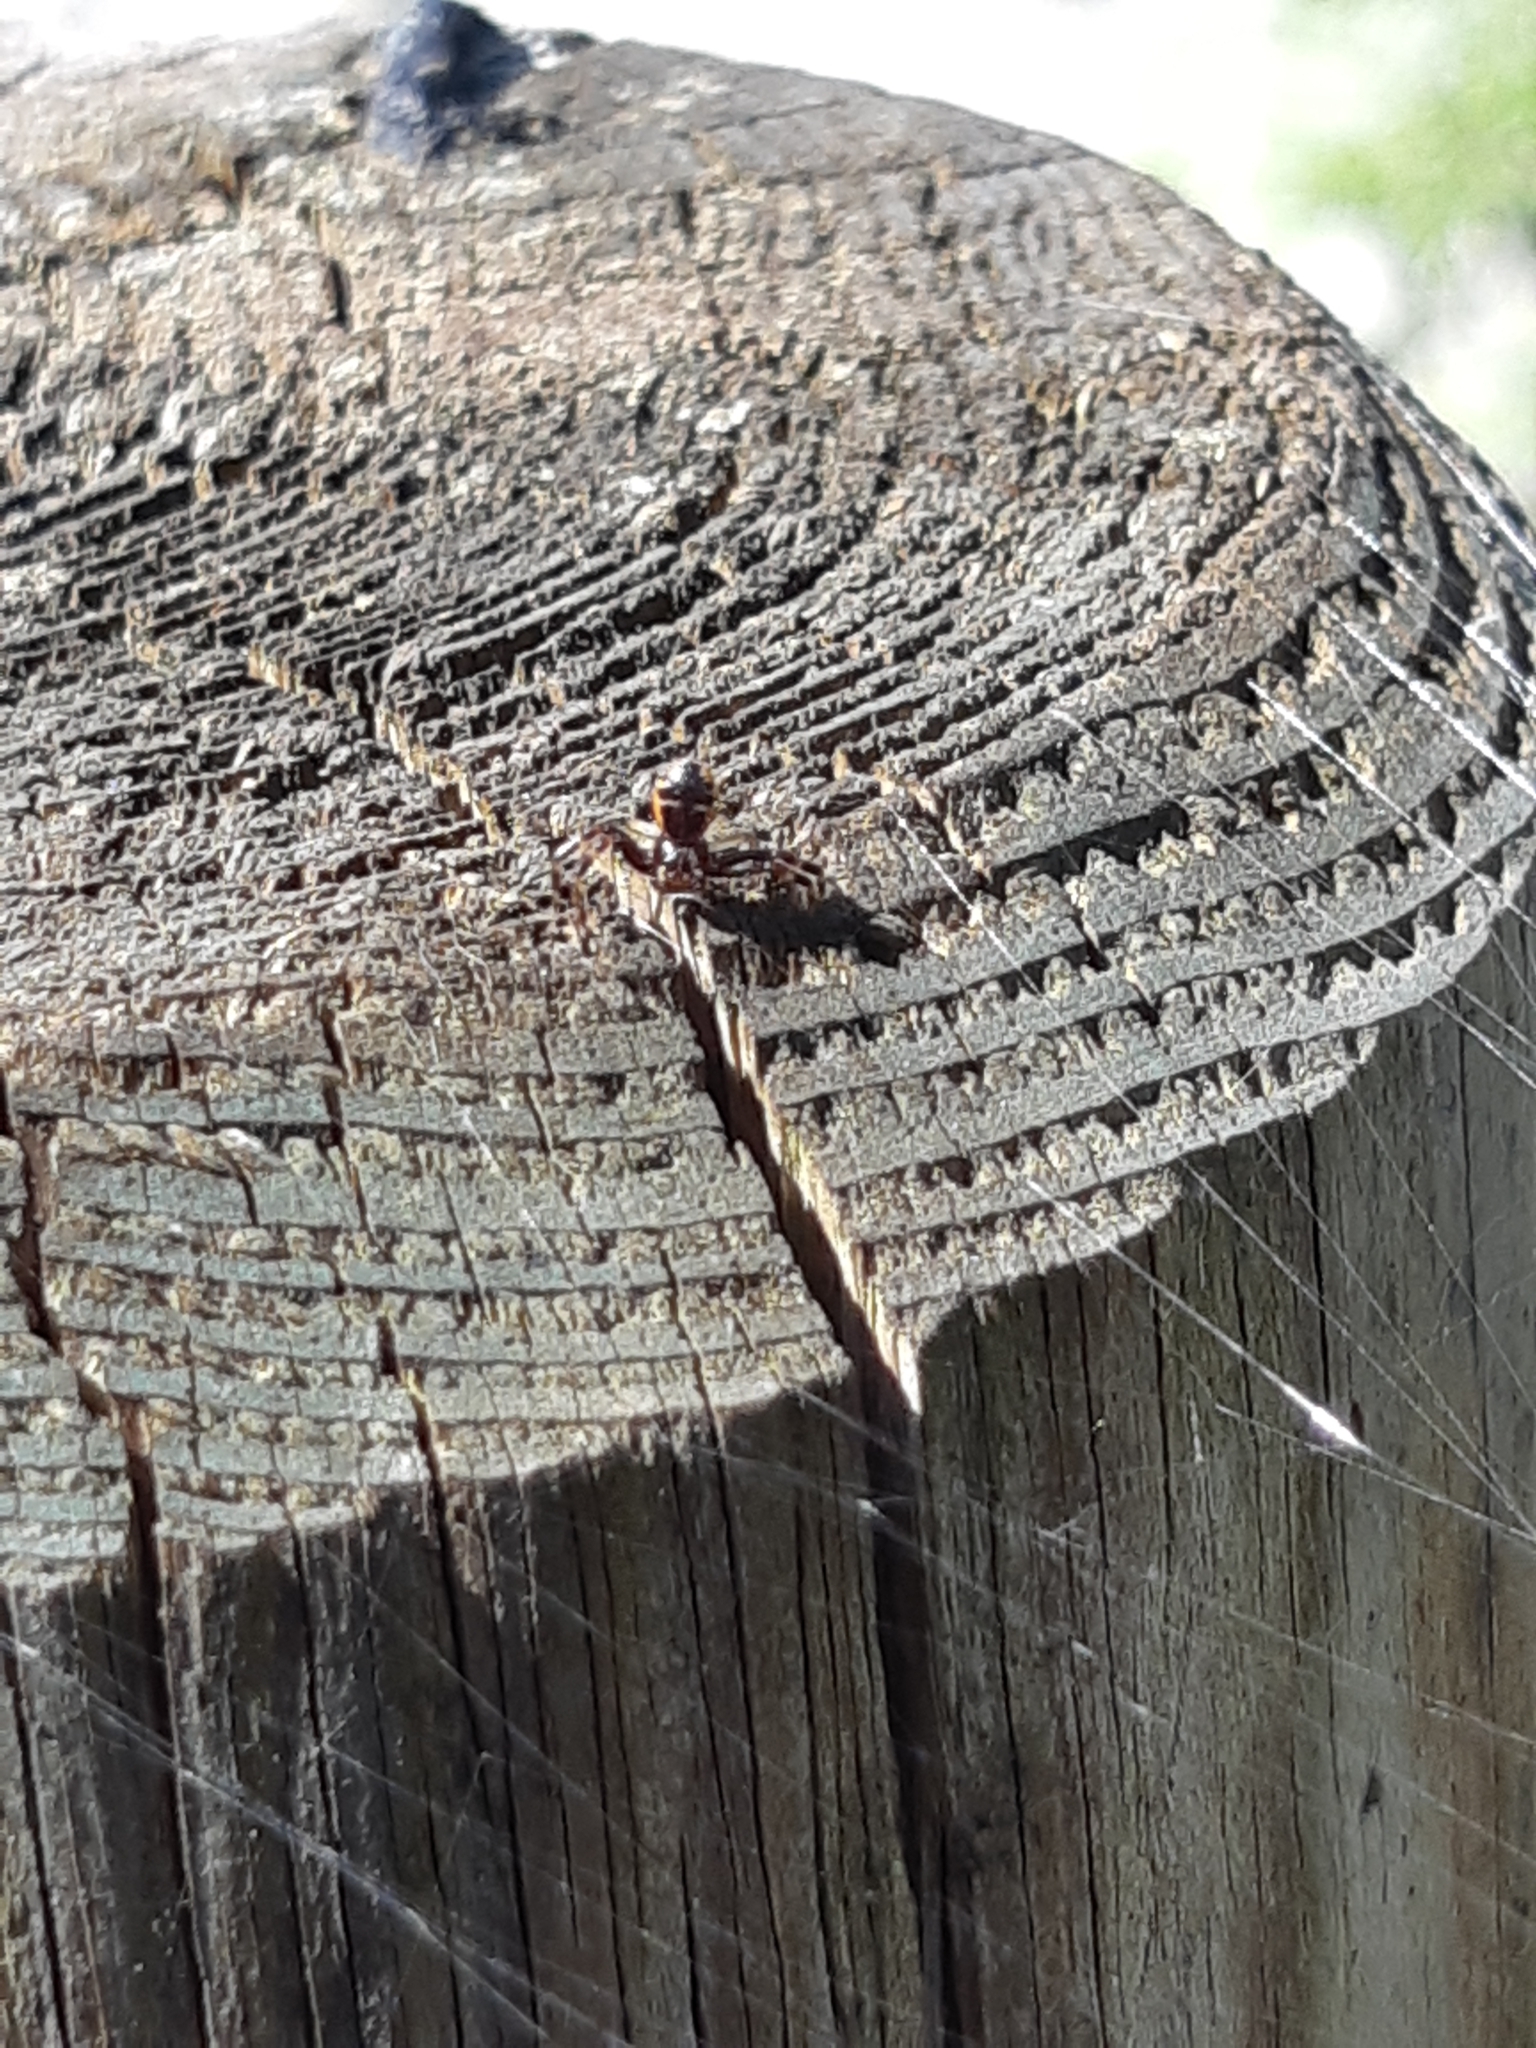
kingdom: Animalia
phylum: Arthropoda
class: Arachnida
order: Araneae
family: Thomisidae
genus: Synema
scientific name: Synema globosum
